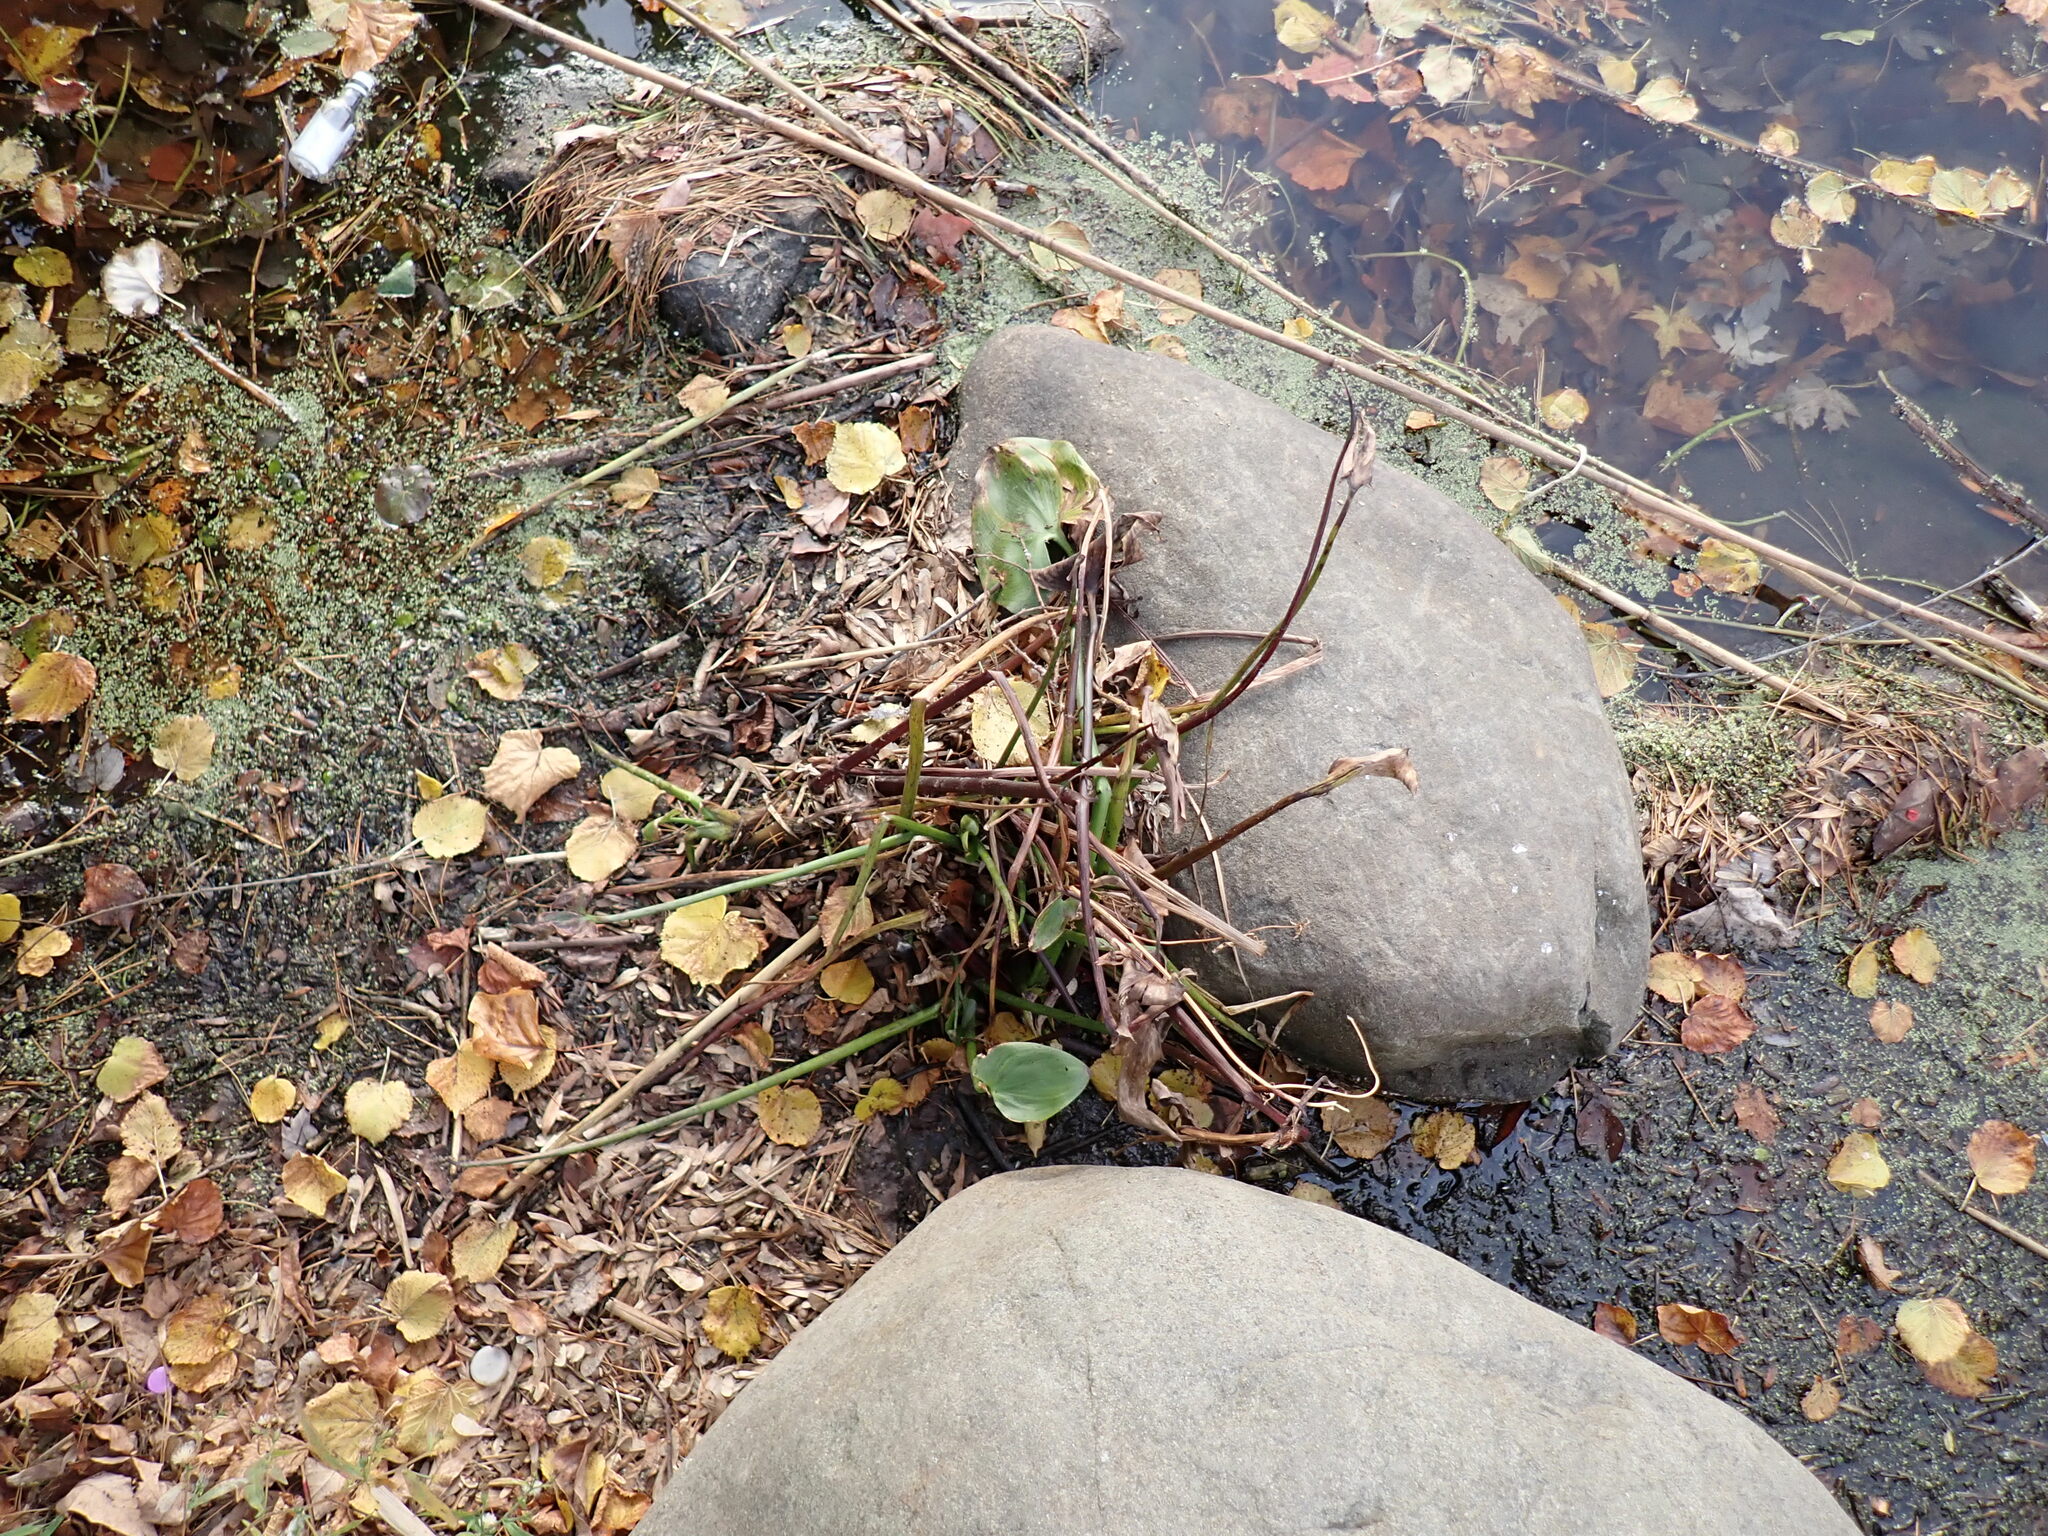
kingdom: Plantae
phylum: Tracheophyta
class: Liliopsida
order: Commelinales
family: Pontederiaceae
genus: Pontederia
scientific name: Pontederia cordata
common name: Pickerelweed
